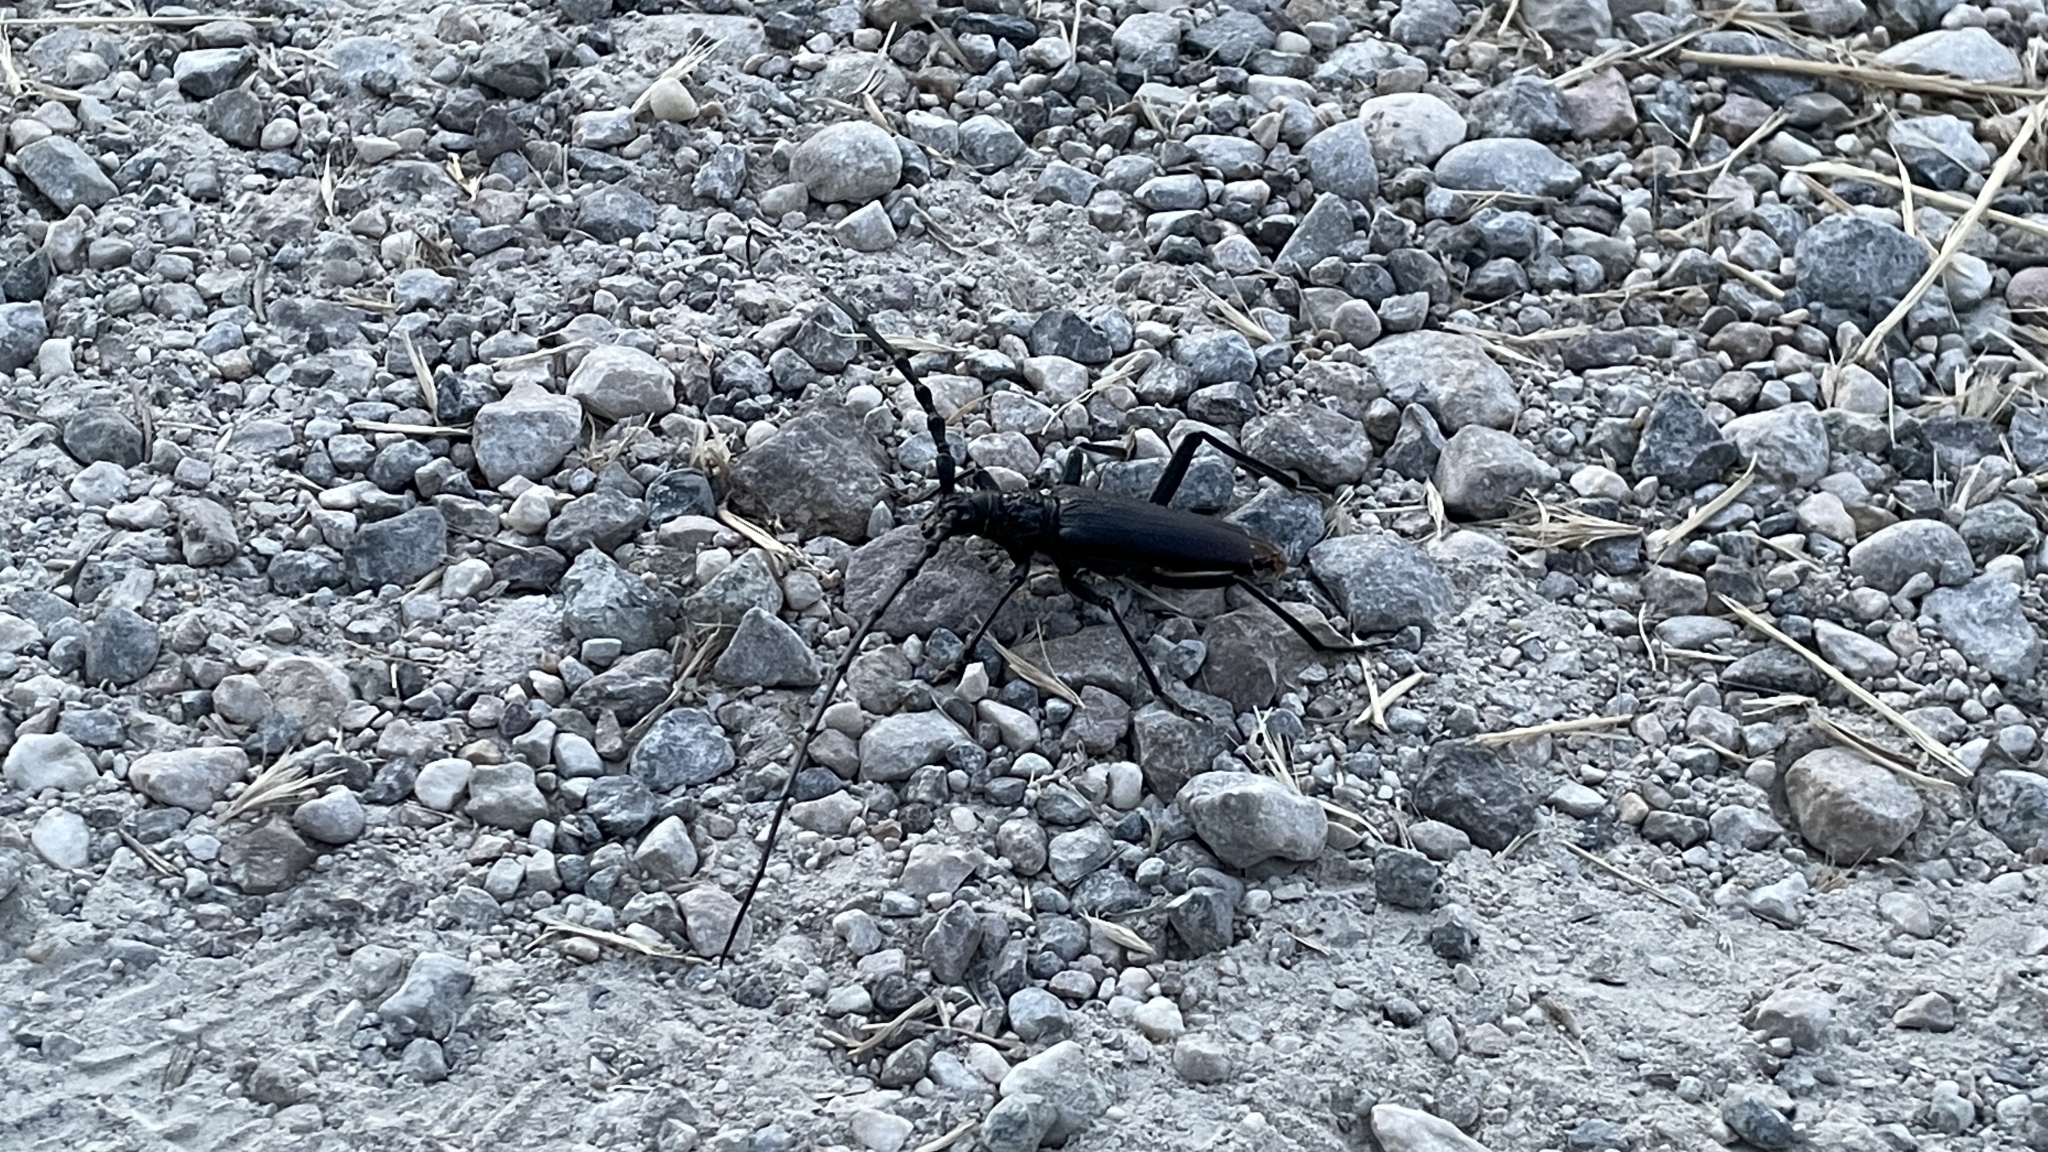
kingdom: Animalia
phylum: Arthropoda
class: Insecta
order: Coleoptera
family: Cerambycidae
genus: Cerambyx
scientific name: Cerambyx cerdo
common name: Cerambyx longicorn
